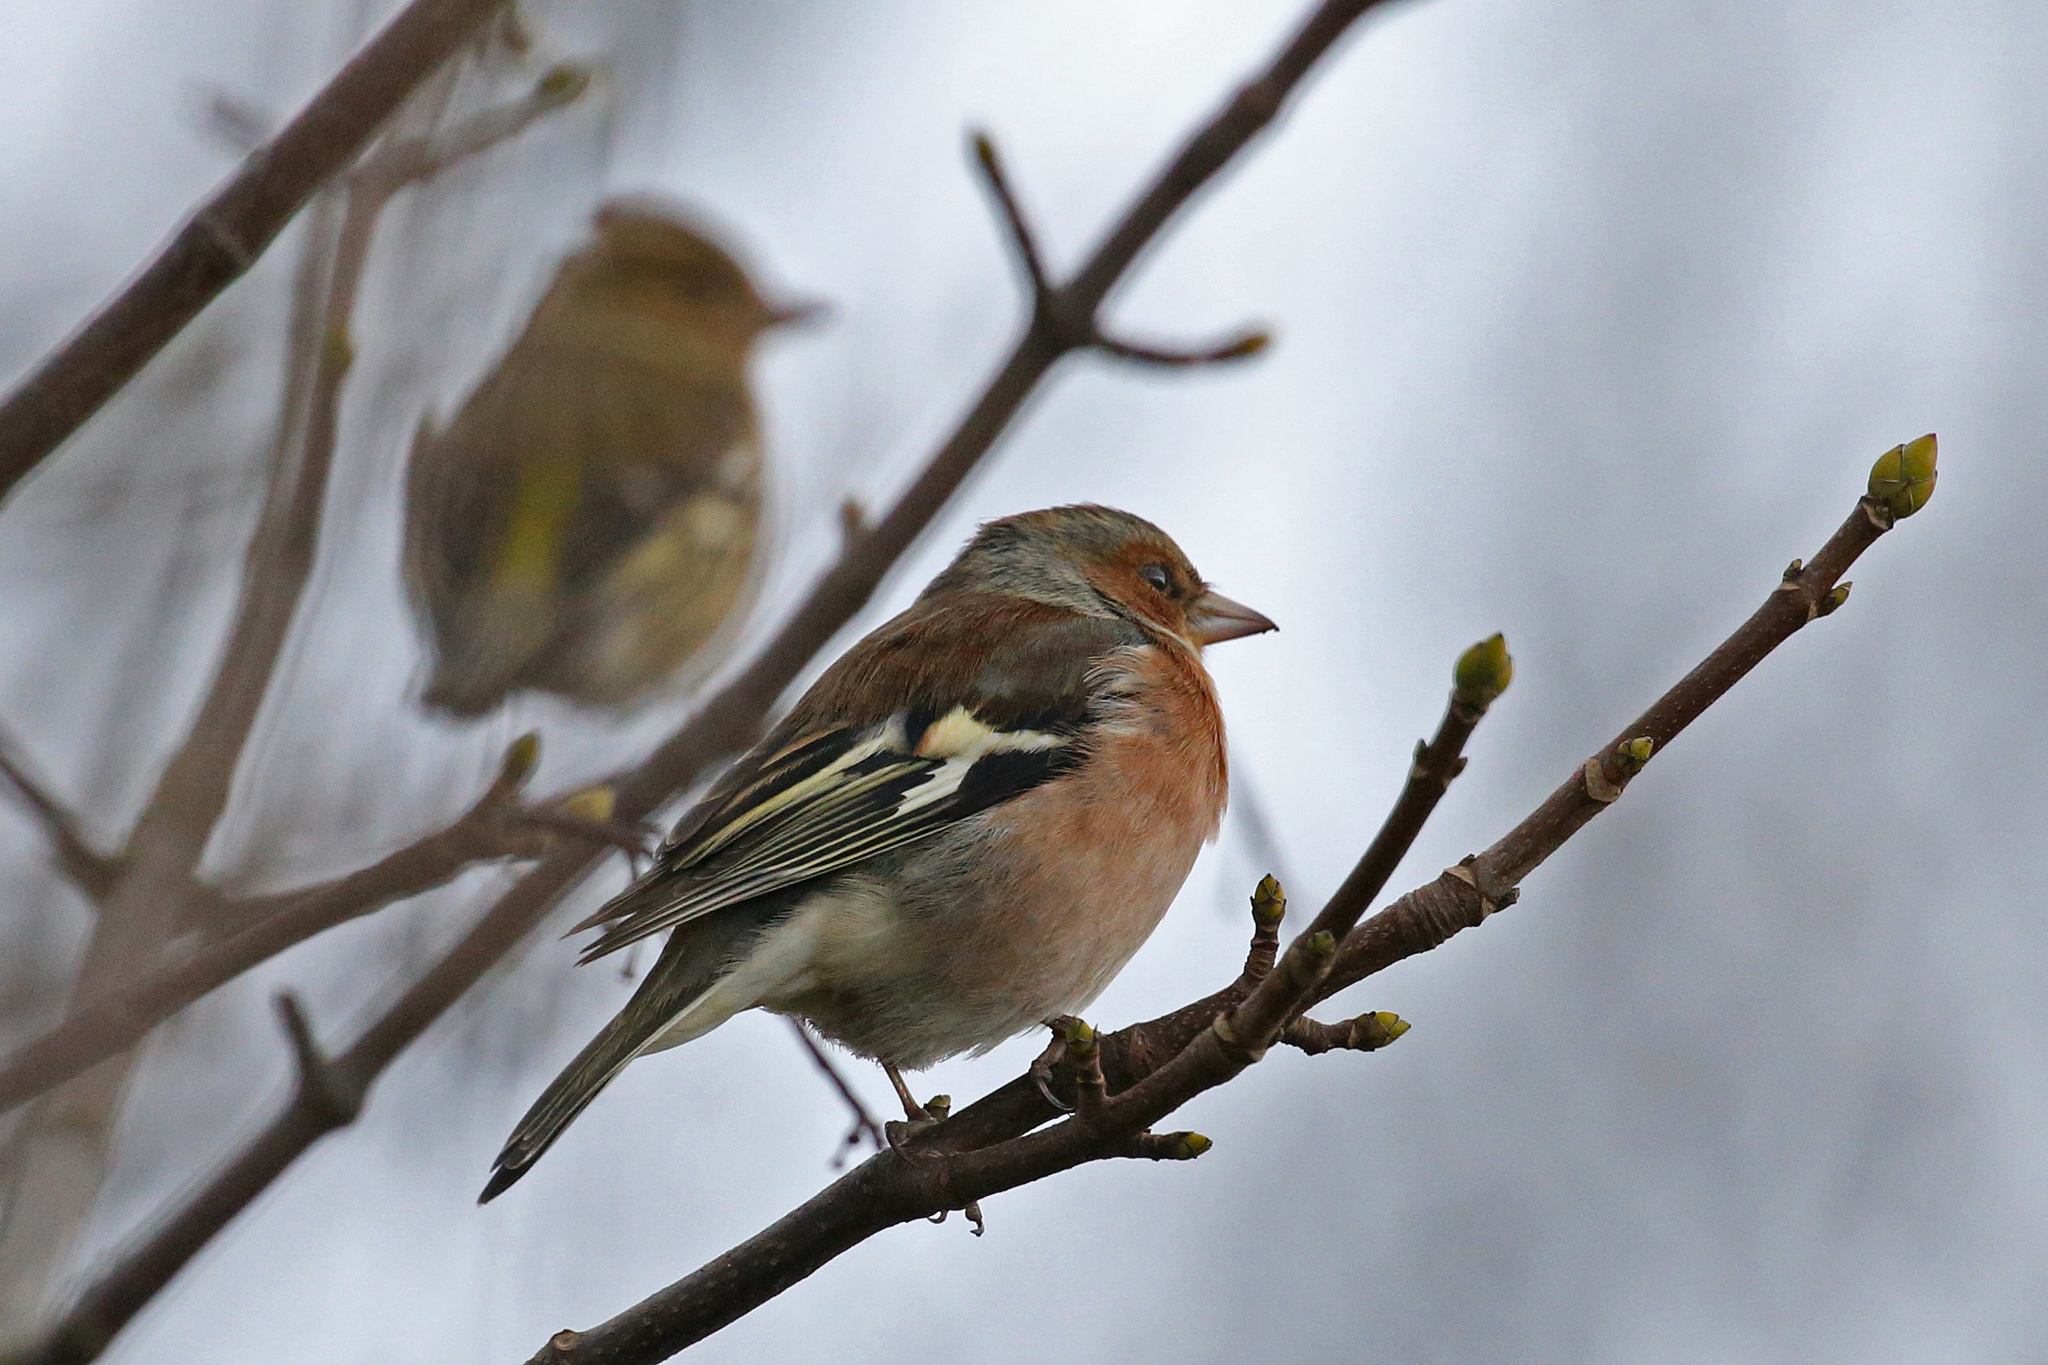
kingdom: Animalia
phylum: Chordata
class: Aves
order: Passeriformes
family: Fringillidae
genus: Fringilla
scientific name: Fringilla coelebs
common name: Common chaffinch
